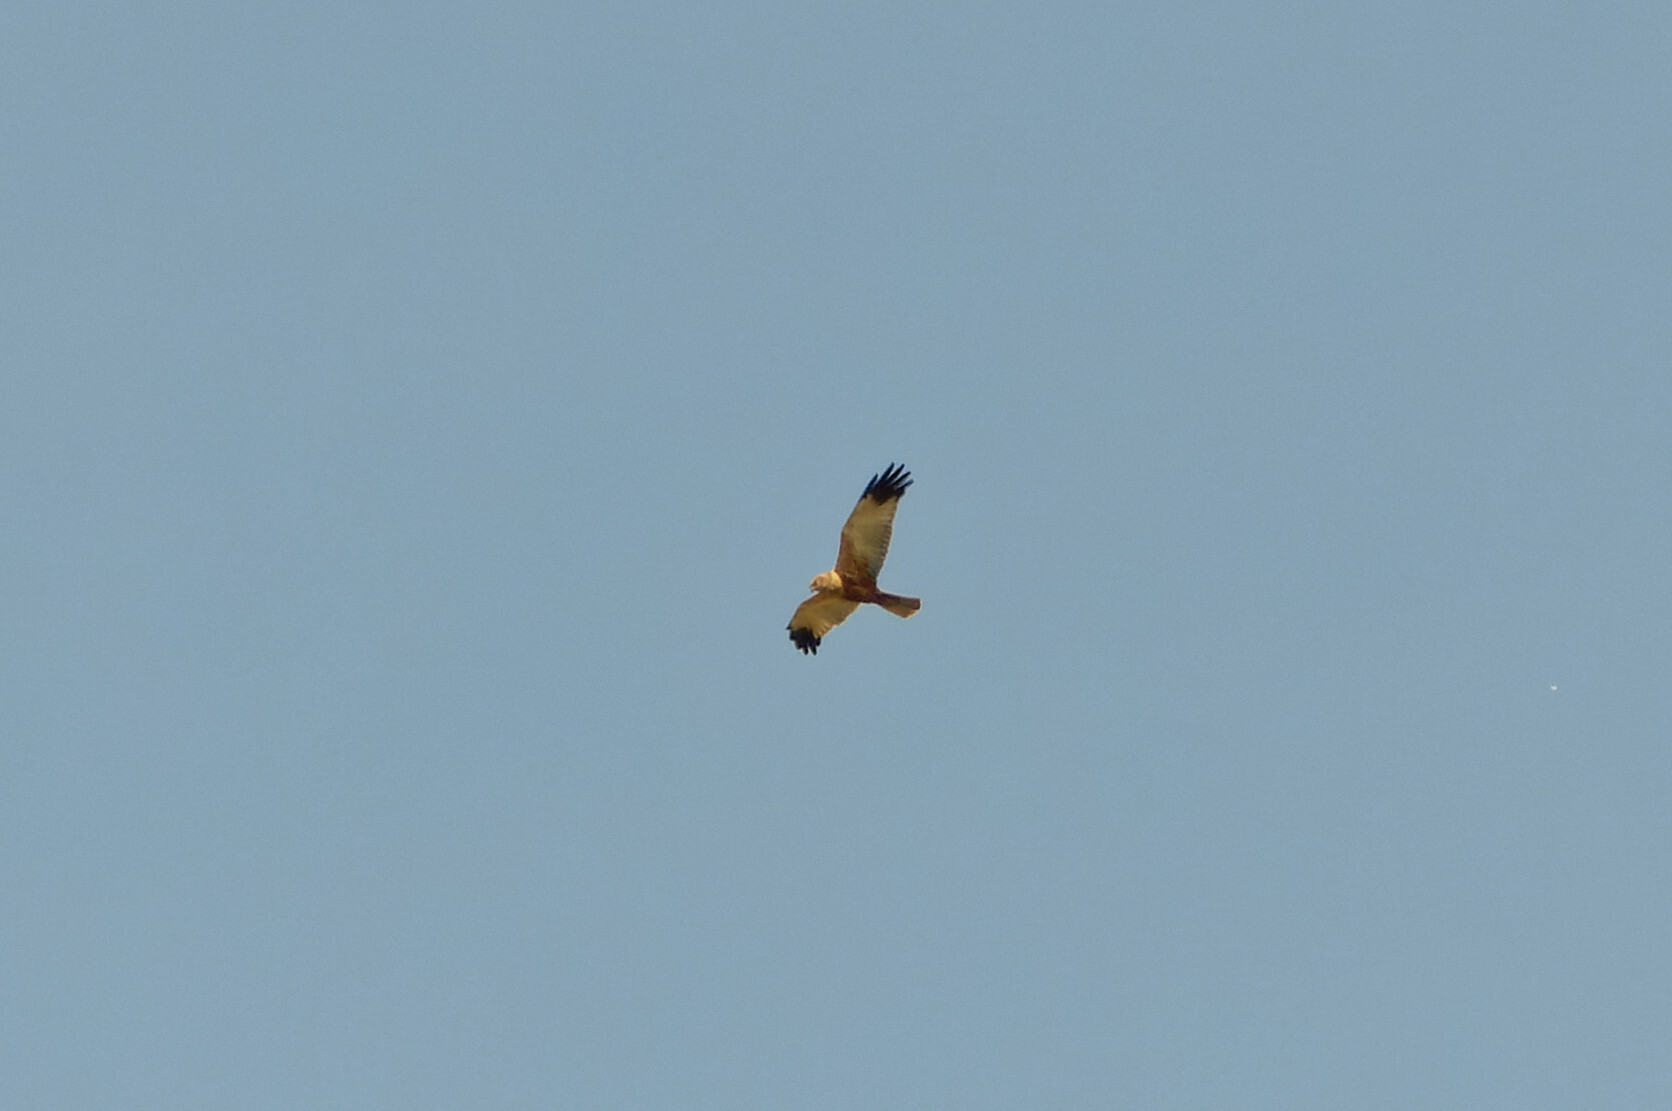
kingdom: Animalia
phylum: Chordata
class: Aves
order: Accipitriformes
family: Accipitridae
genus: Circus
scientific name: Circus aeruginosus
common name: Western marsh harrier
